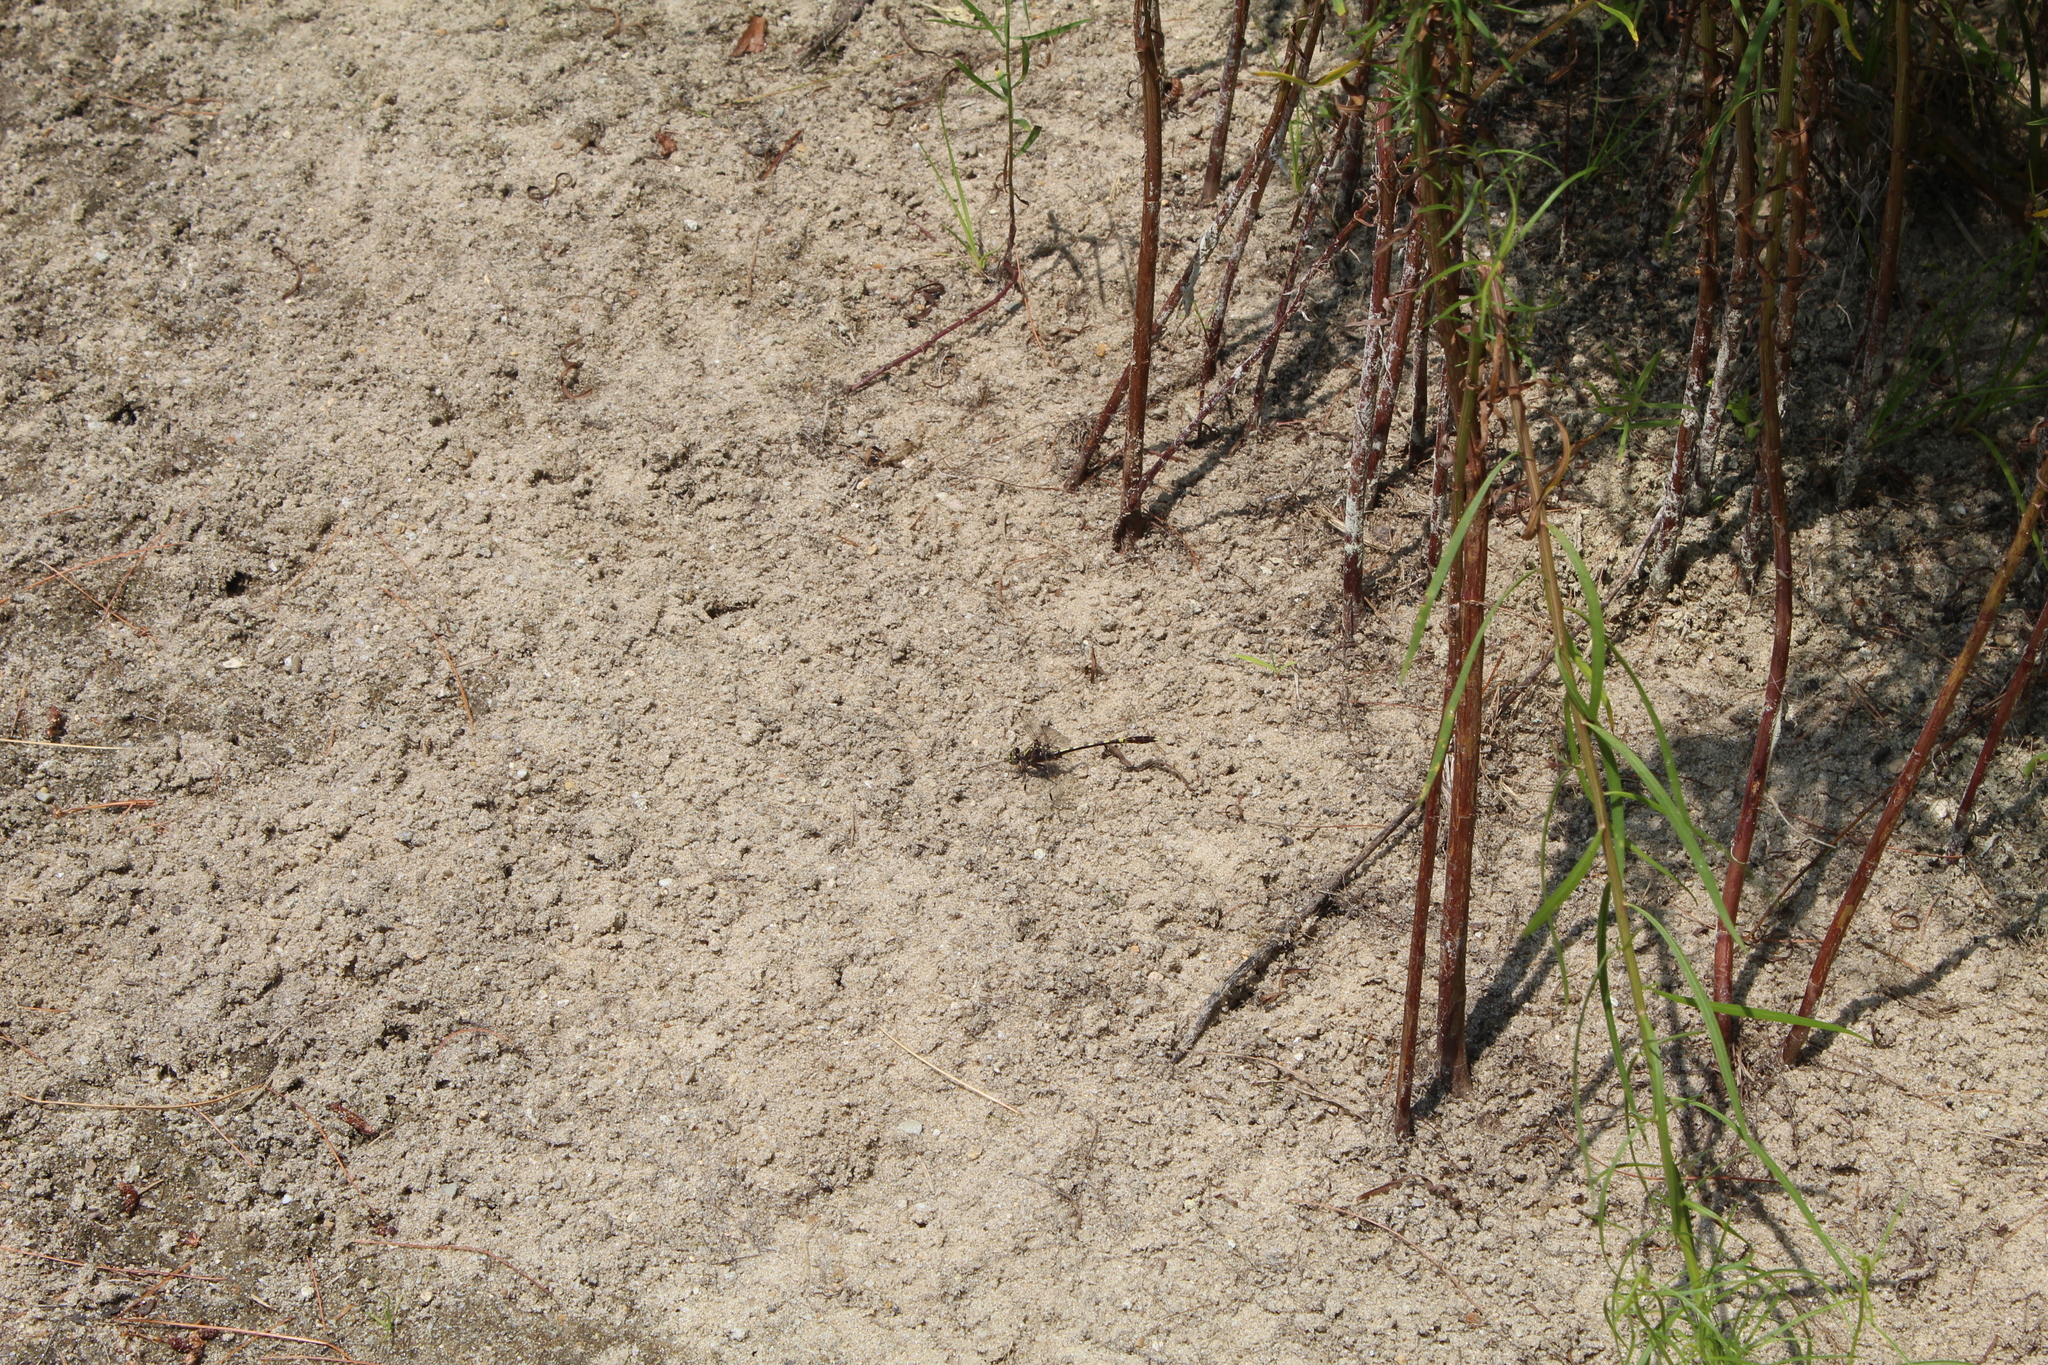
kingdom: Animalia
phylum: Arthropoda
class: Insecta
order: Odonata
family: Gomphidae
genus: Progomphus
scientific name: Progomphus obscurus
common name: Common sanddragon
